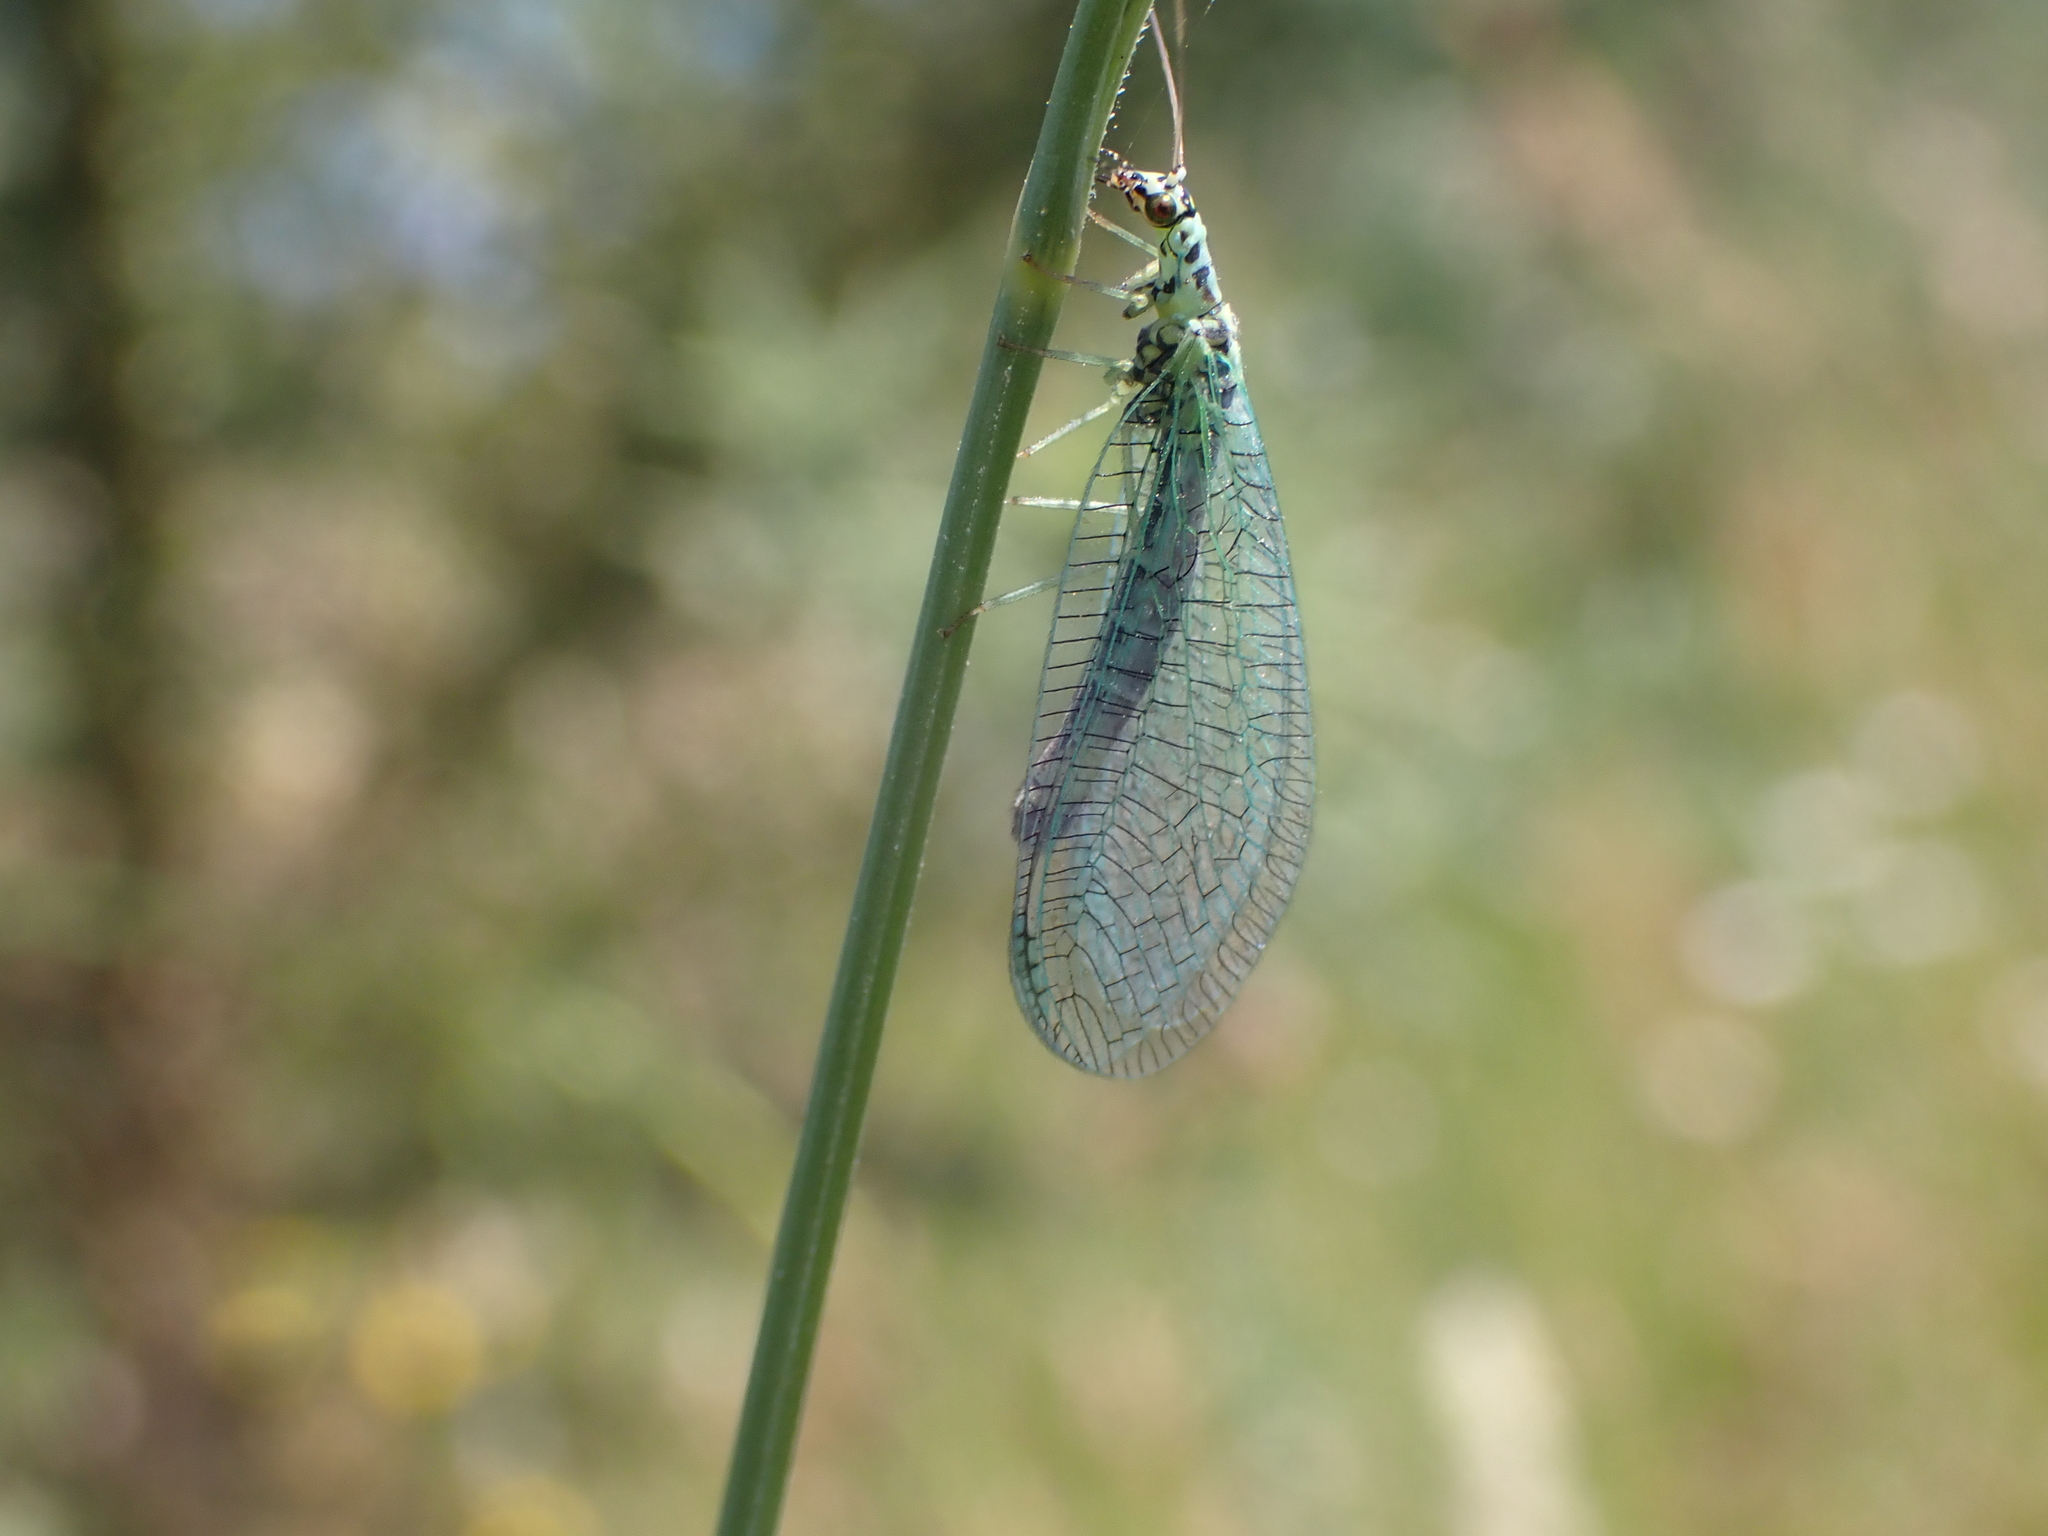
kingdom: Animalia
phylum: Arthropoda
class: Insecta
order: Neuroptera
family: Chrysopidae
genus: Chrysopa
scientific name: Chrysopa perla
